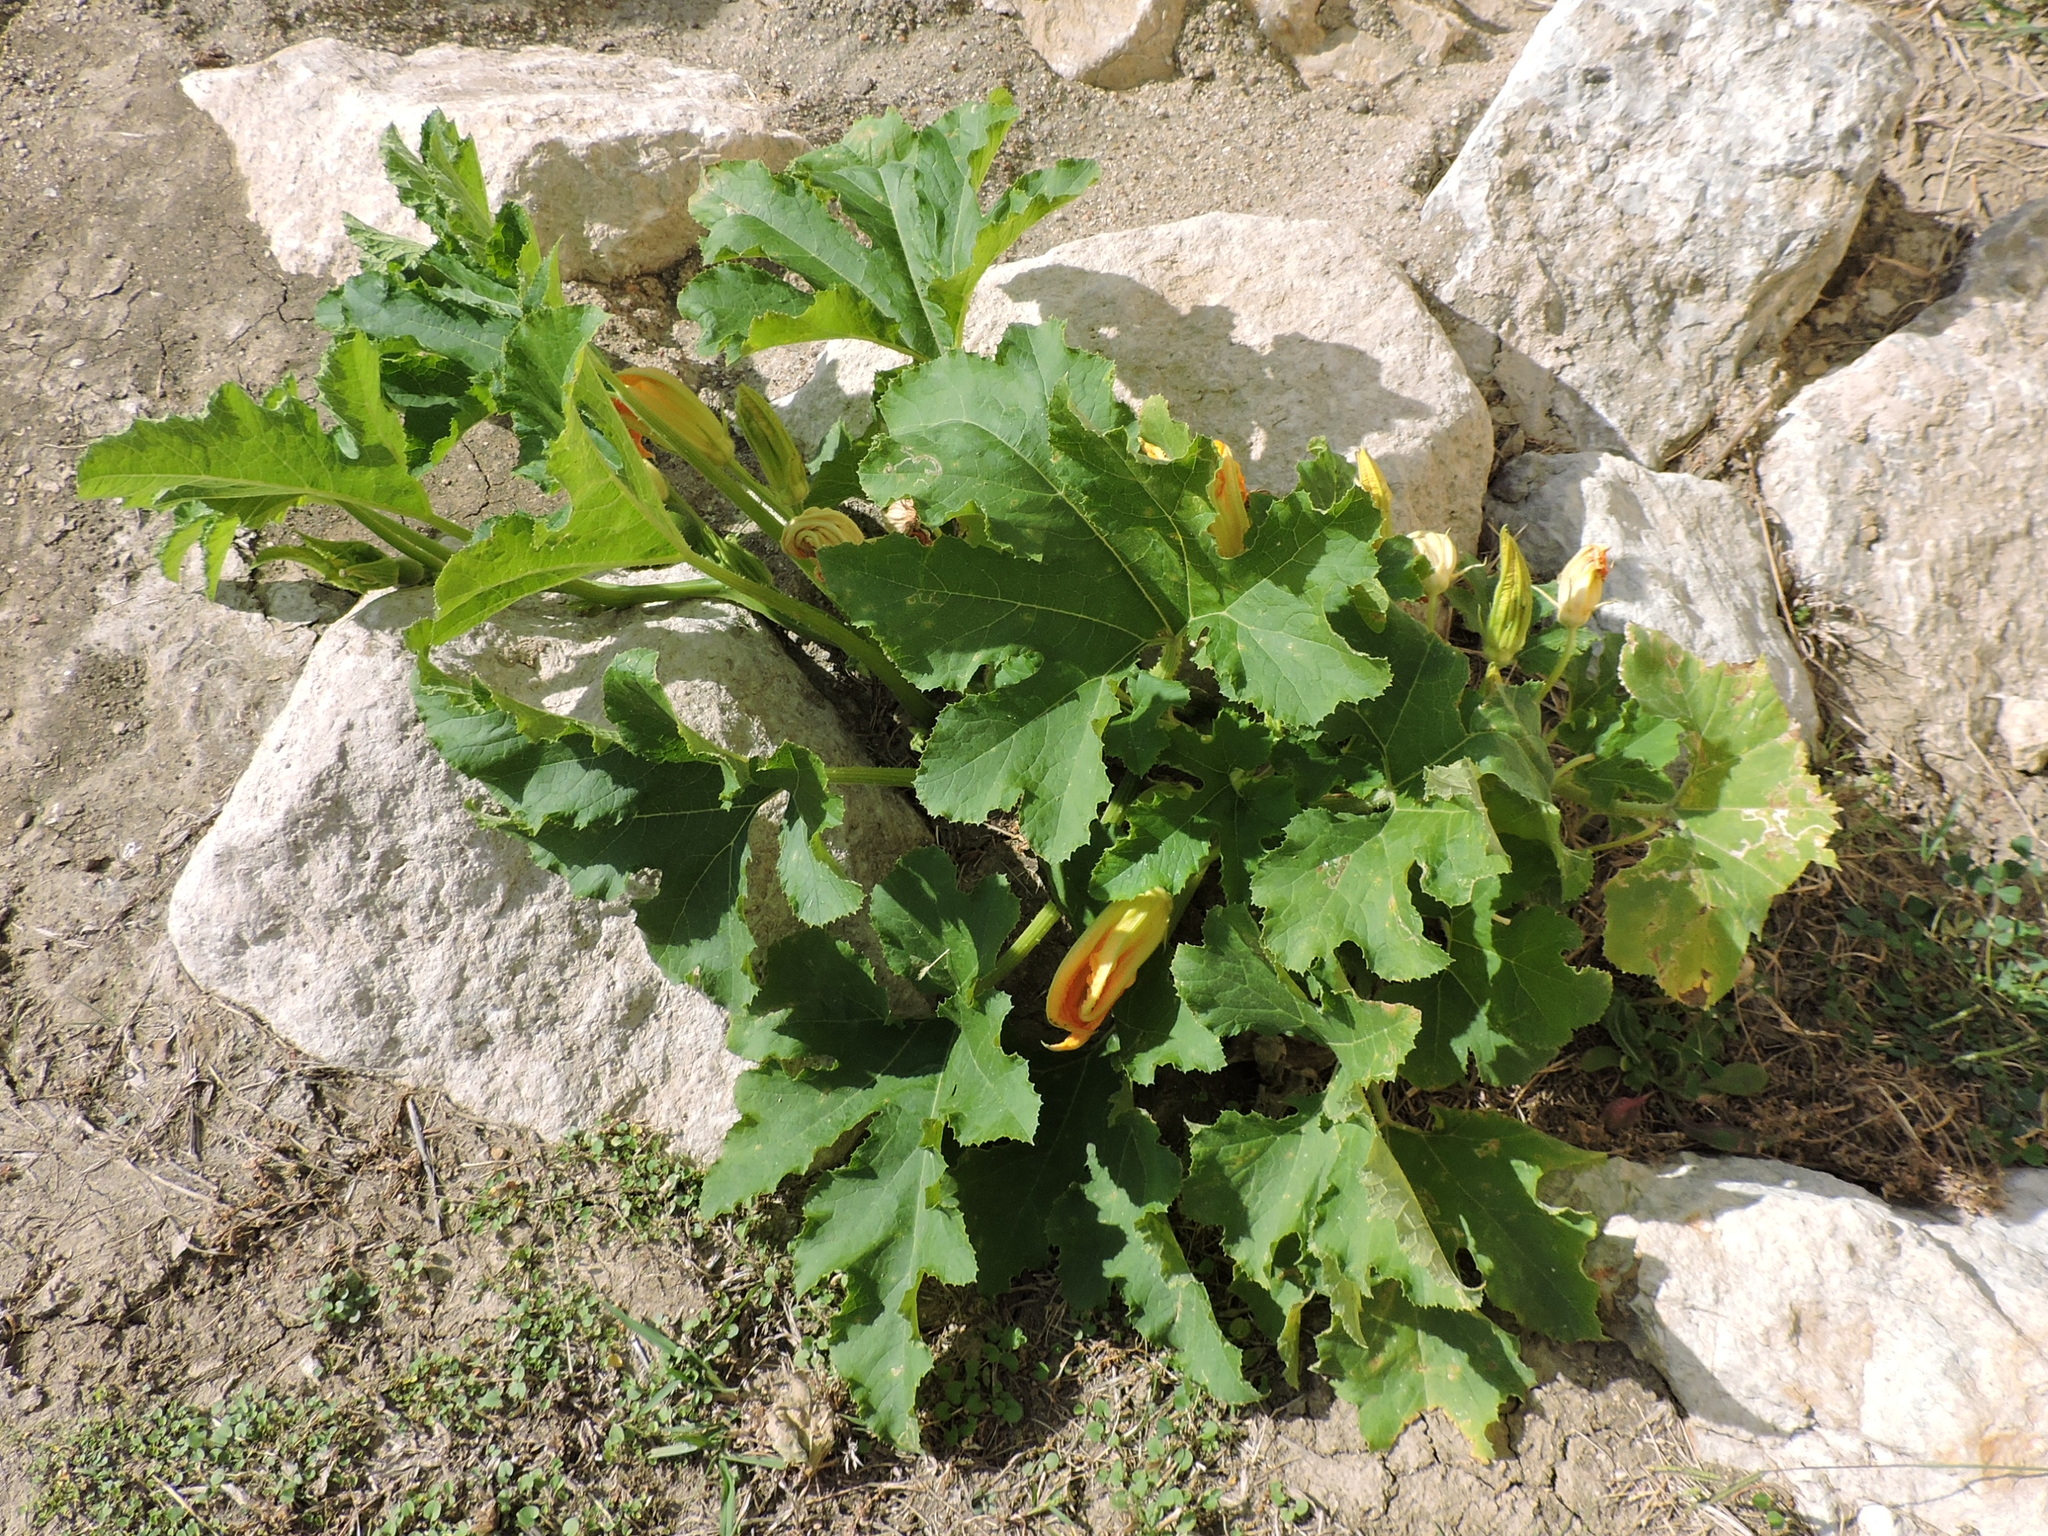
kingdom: Plantae
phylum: Tracheophyta
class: Magnoliopsida
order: Cucurbitales
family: Cucurbitaceae
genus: Cucurbita
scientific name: Cucurbita pepo
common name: Marrow
